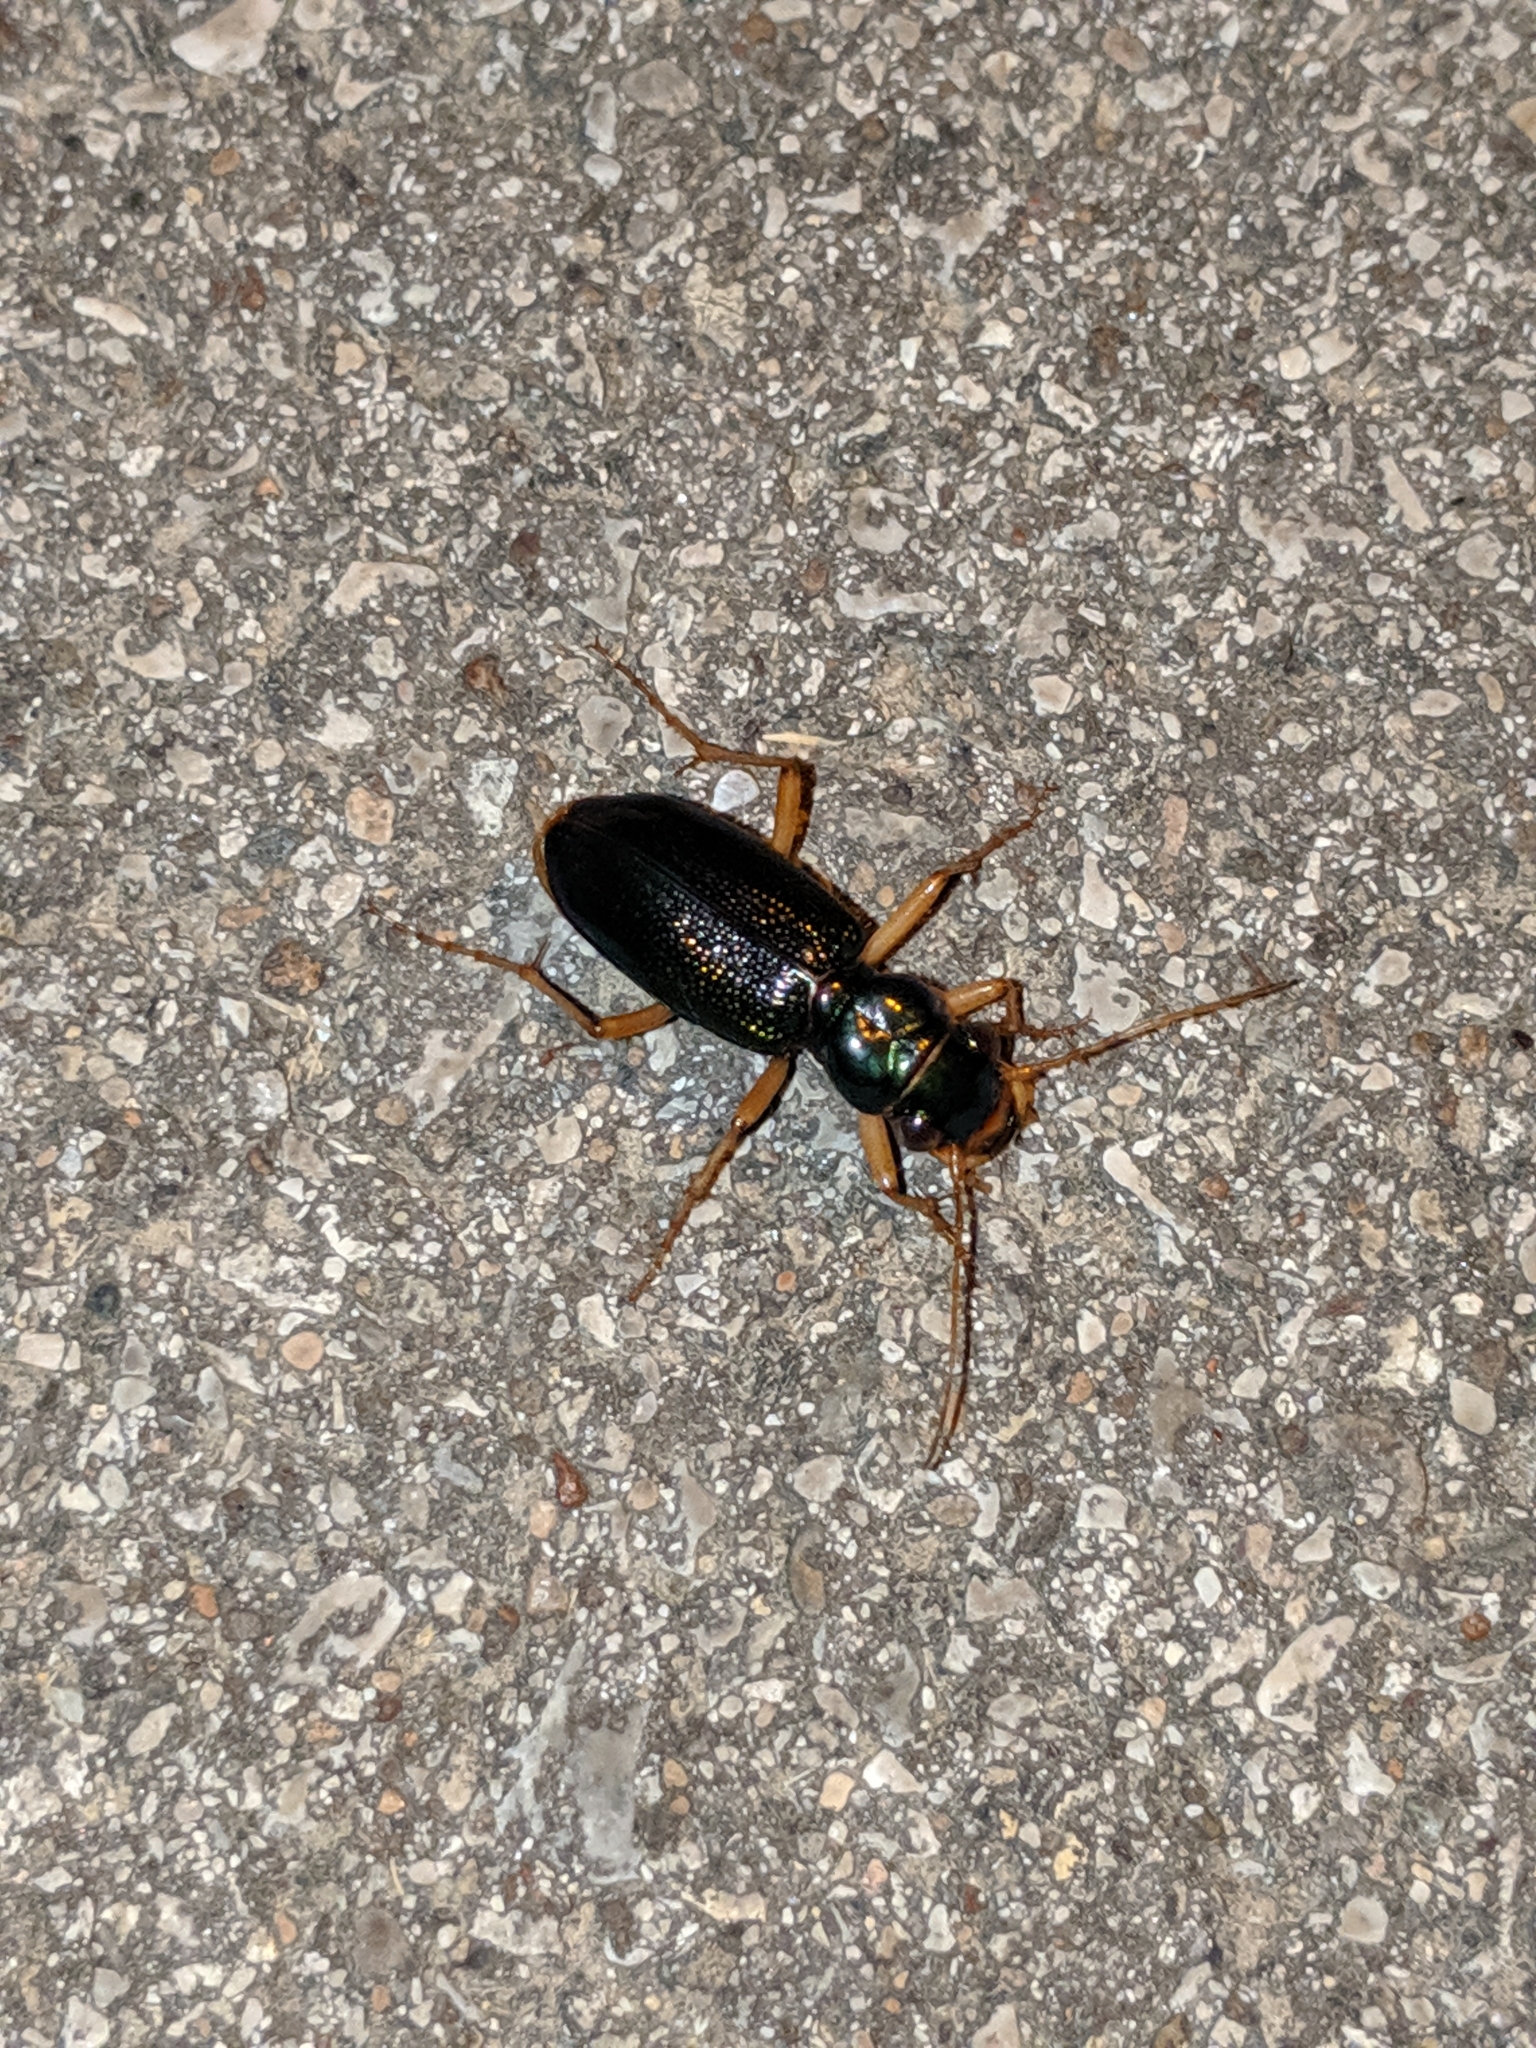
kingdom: Animalia
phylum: Arthropoda
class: Insecta
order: Coleoptera
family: Carabidae
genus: Tetracha
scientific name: Tetracha virginica
